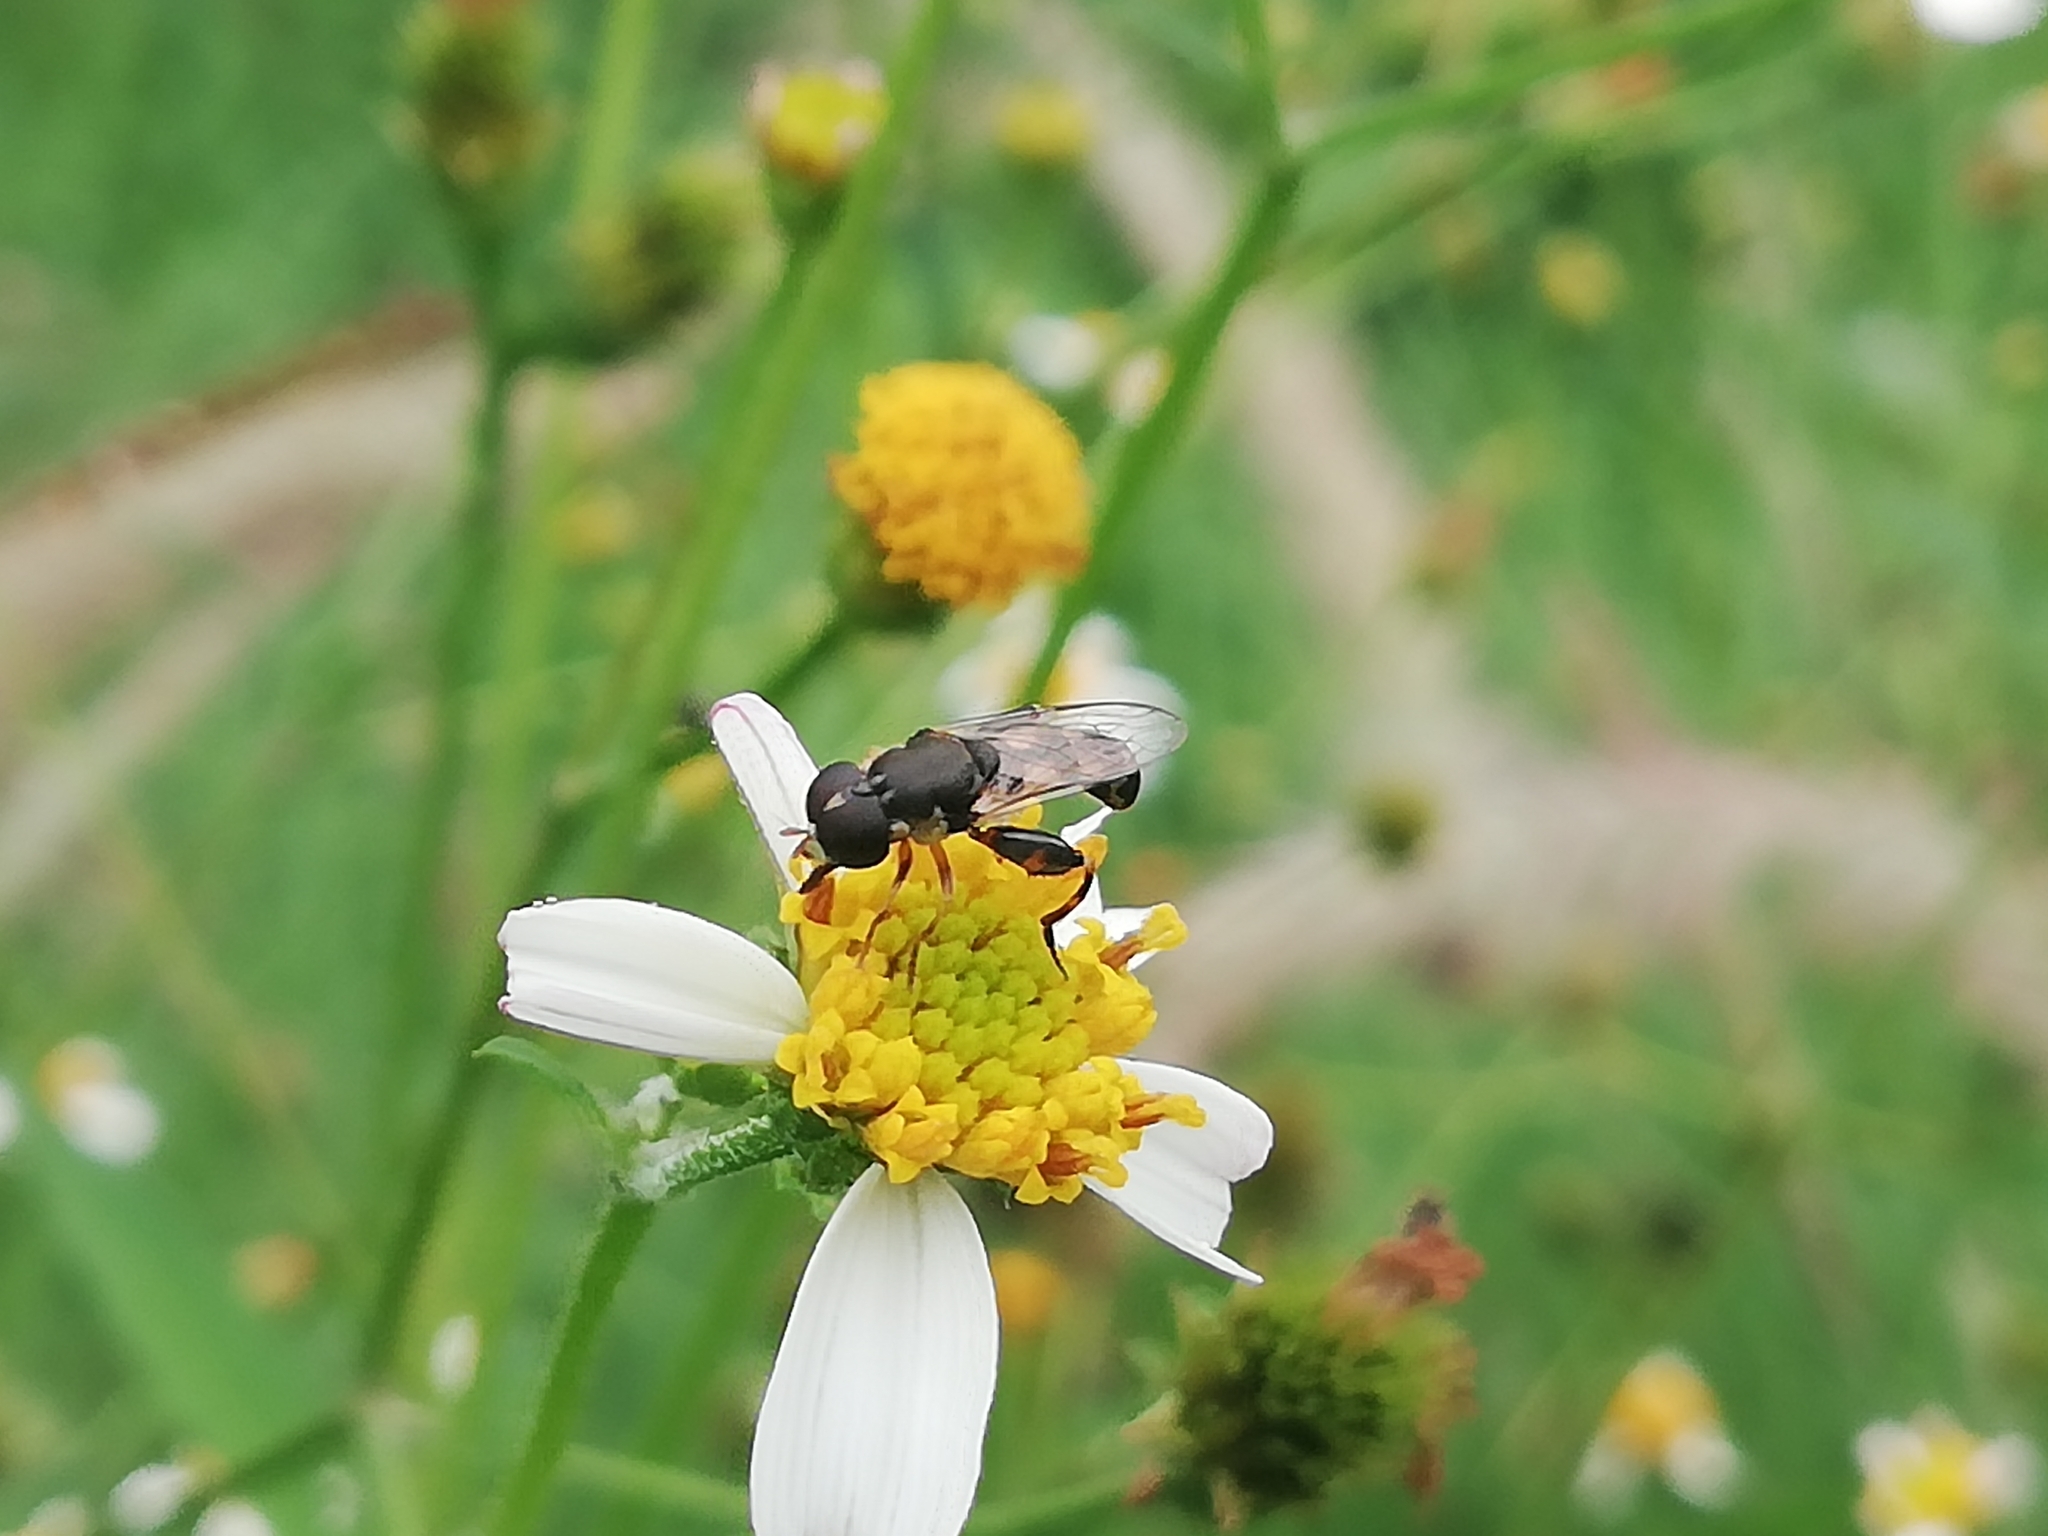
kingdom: Animalia
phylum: Arthropoda
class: Insecta
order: Diptera
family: Syrphidae
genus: Syritta
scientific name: Syritta pipiens
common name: Hover fly
